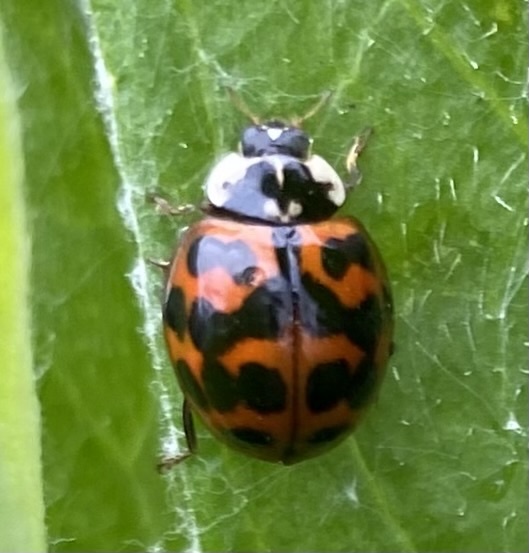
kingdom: Animalia
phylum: Arthropoda
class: Insecta
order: Coleoptera
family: Coccinellidae
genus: Harmonia
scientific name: Harmonia axyridis
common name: Harlequin ladybird
